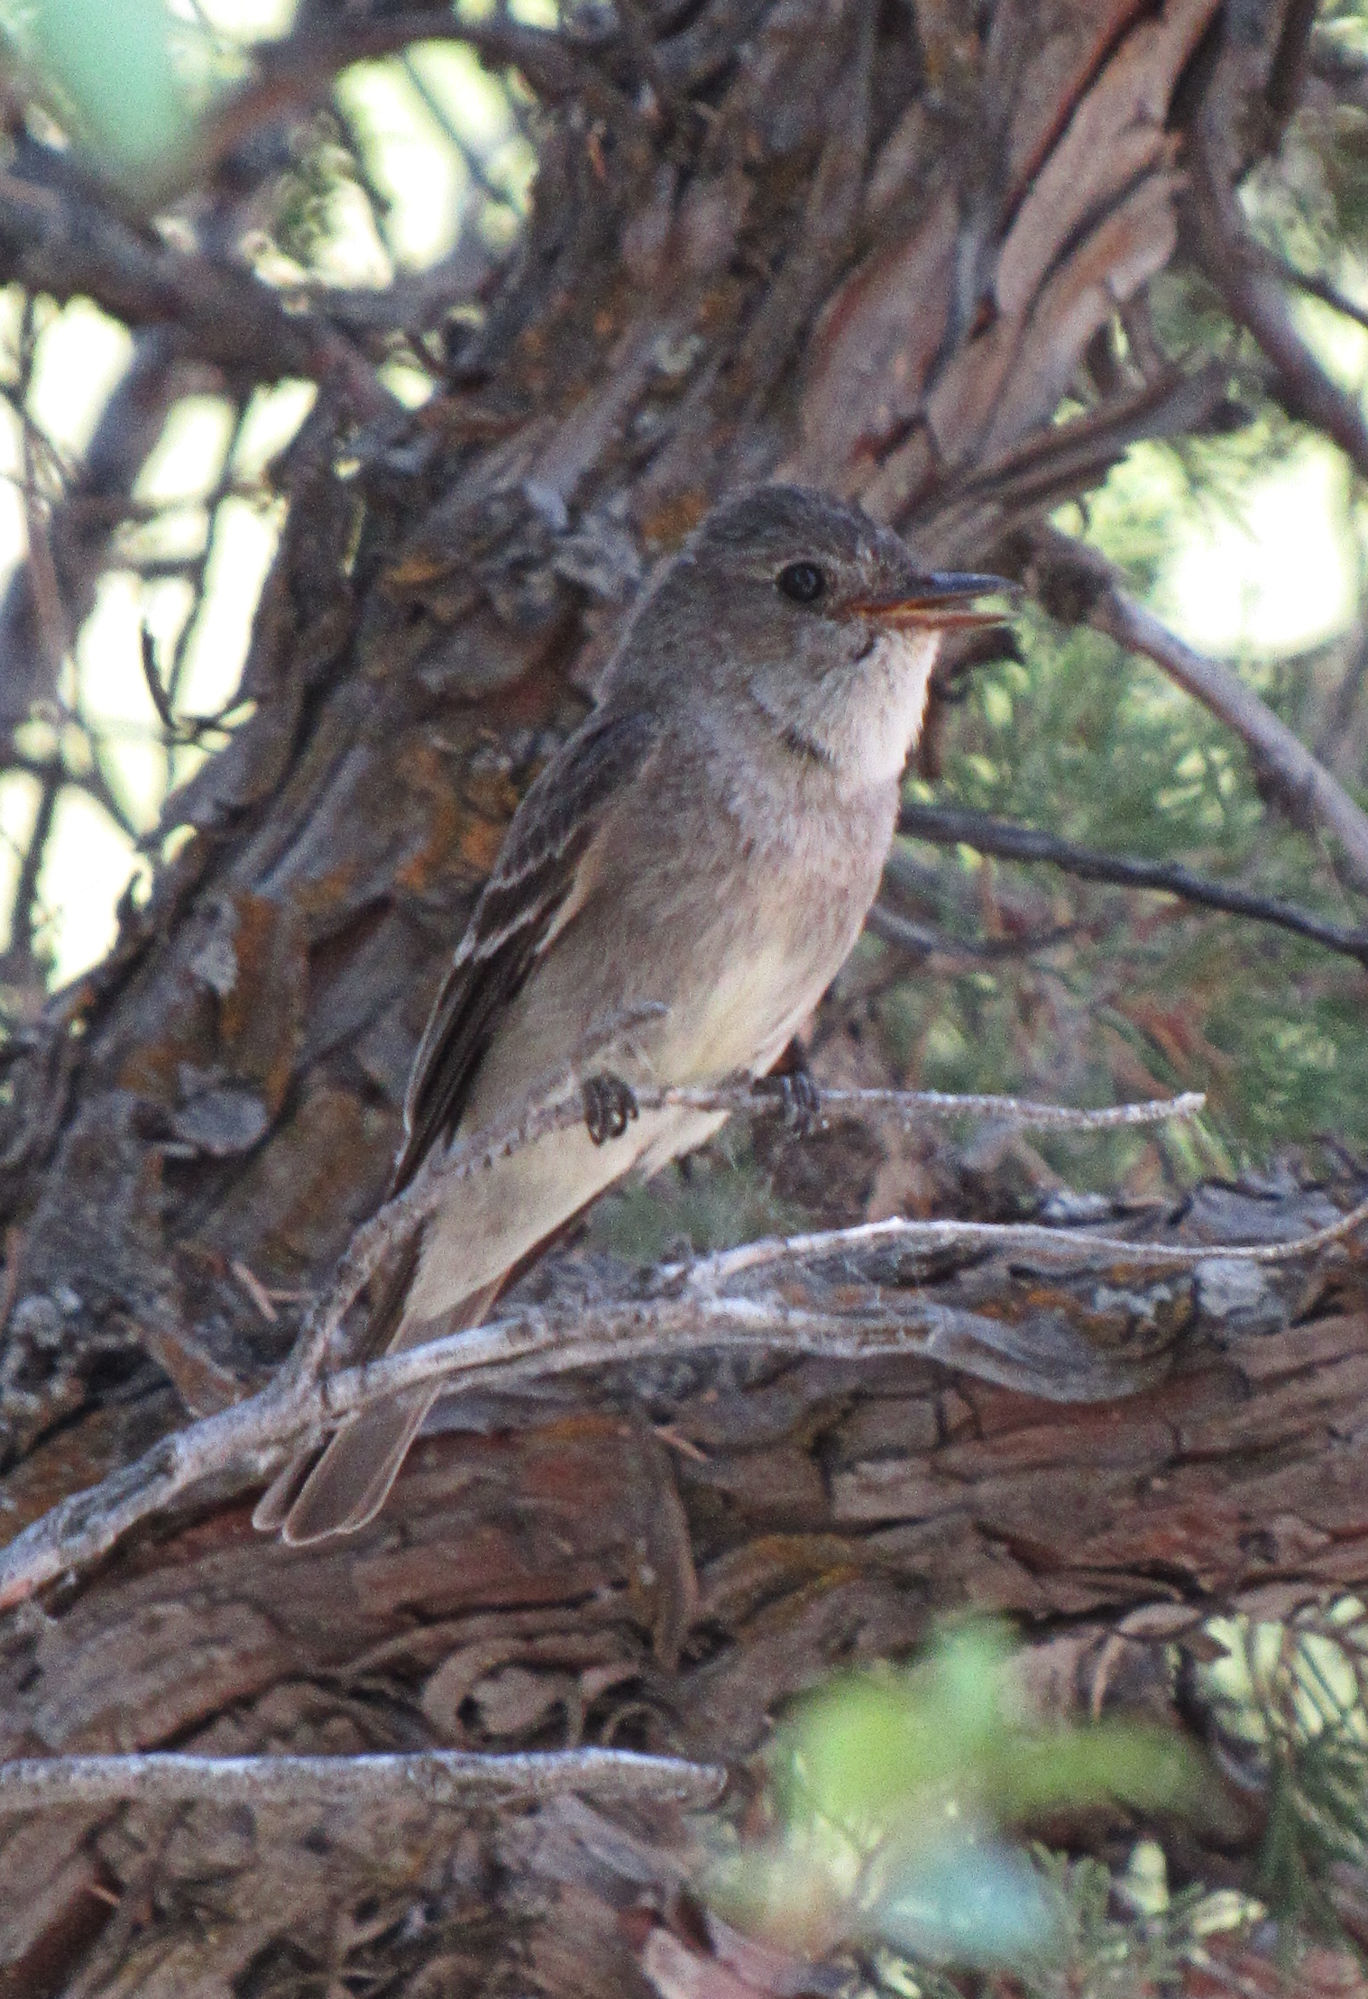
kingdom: Animalia
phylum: Chordata
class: Aves
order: Passeriformes
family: Tyrannidae
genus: Contopus
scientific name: Contopus sordidulus
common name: Western wood-pewee
